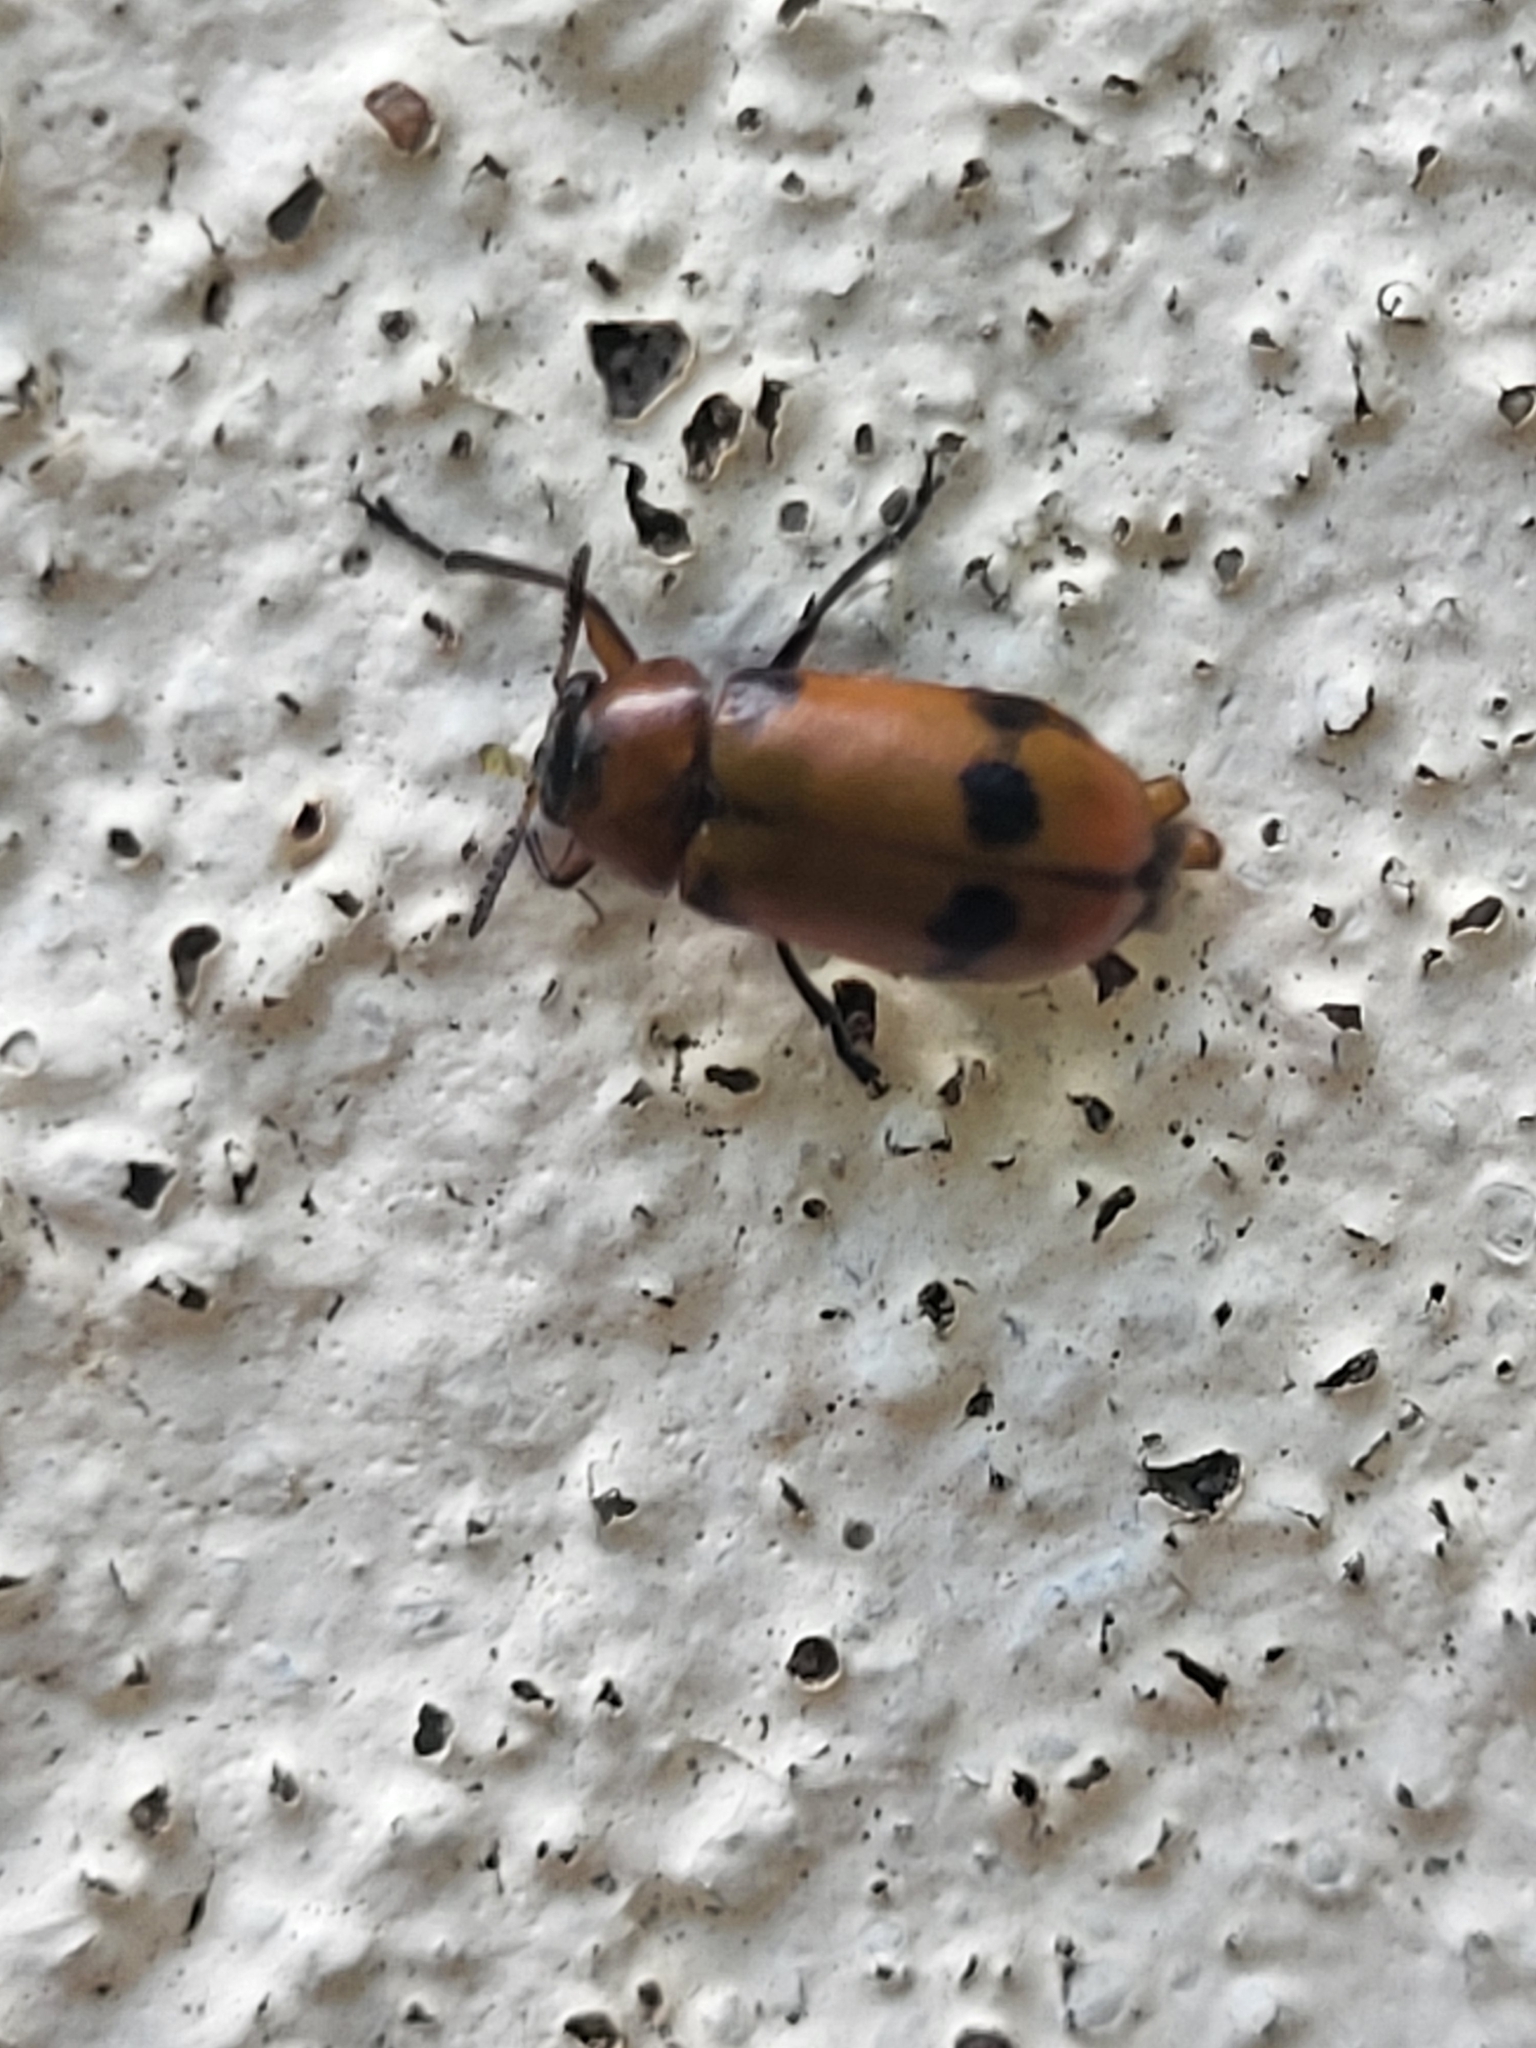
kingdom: Animalia
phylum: Arthropoda
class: Insecta
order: Coleoptera
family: Chrysomelidae
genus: Macrolenes
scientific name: Macrolenes dentipes
